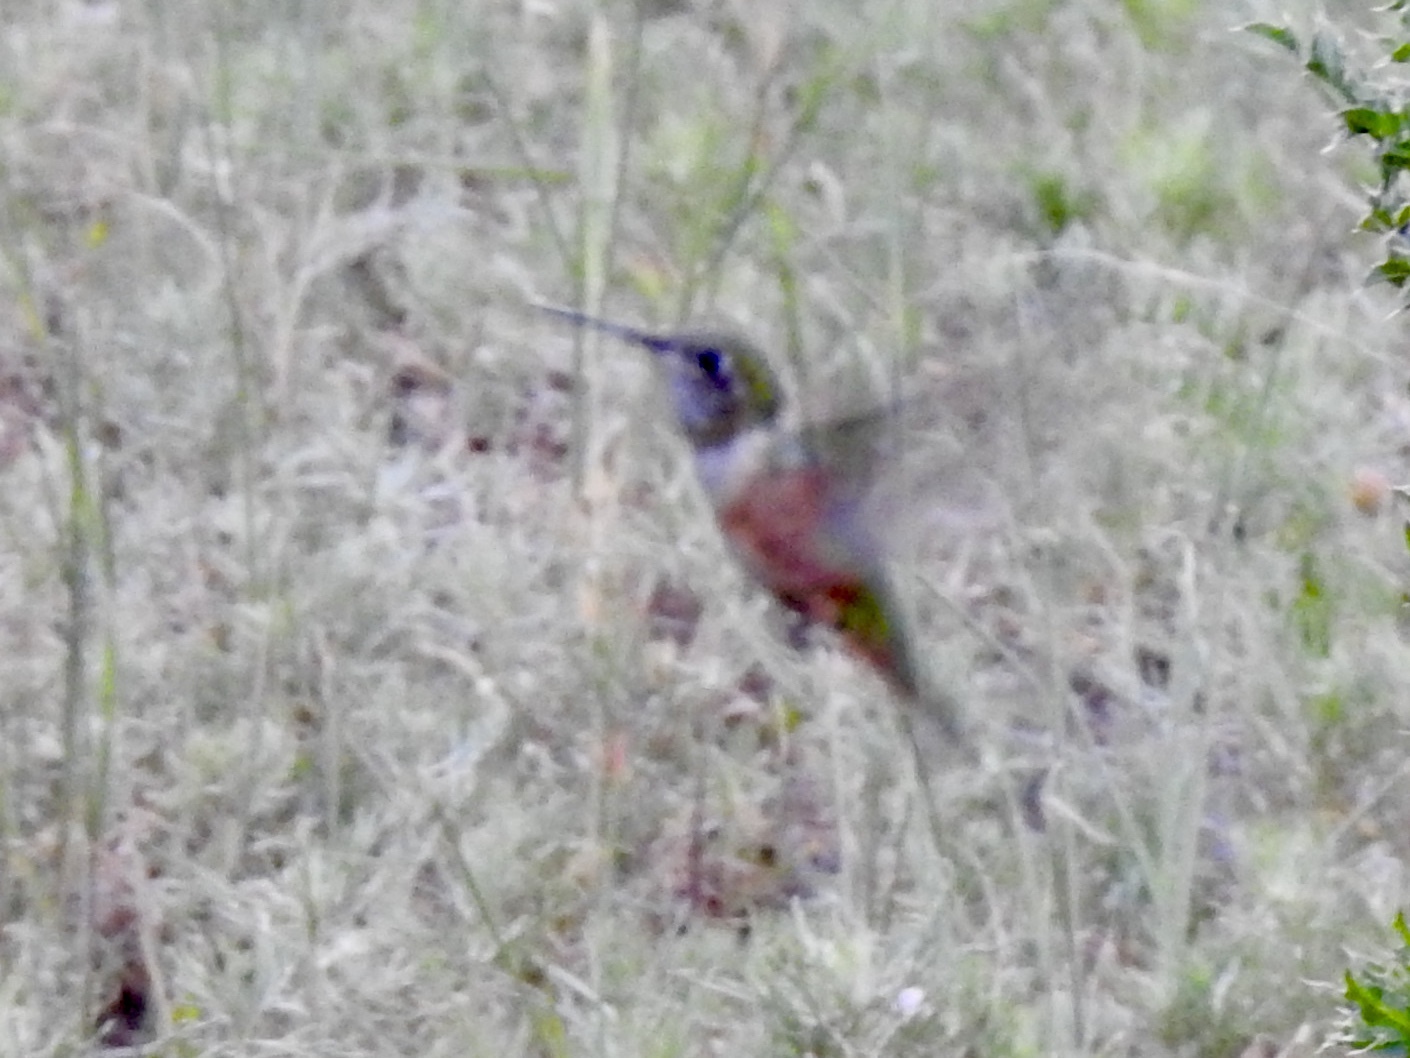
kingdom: Animalia
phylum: Chordata
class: Aves
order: Apodiformes
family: Trochilidae
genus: Selasphorus
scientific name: Selasphorus rufus
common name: Rufous hummingbird
